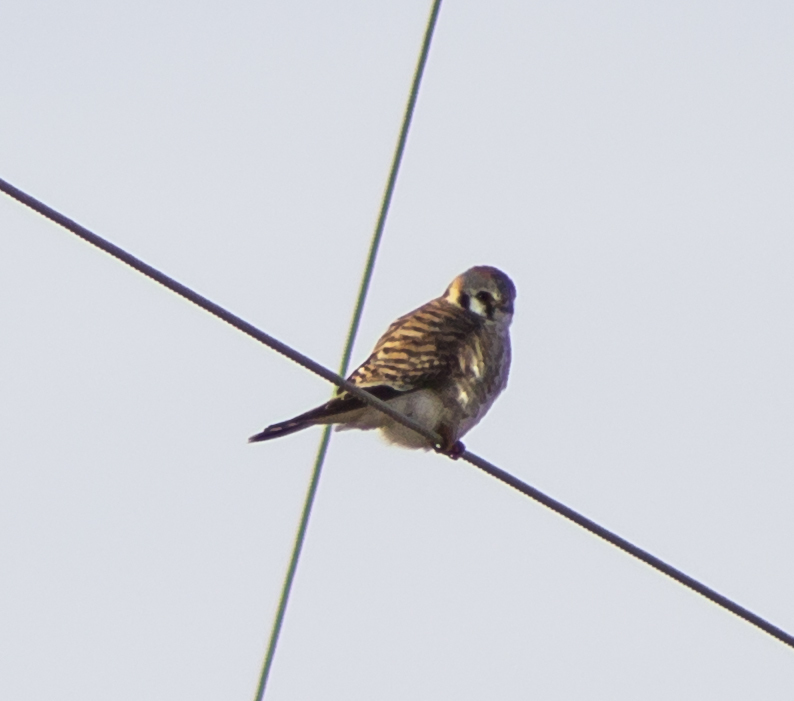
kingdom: Animalia
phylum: Chordata
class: Aves
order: Falconiformes
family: Falconidae
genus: Falco
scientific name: Falco sparverius
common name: American kestrel
